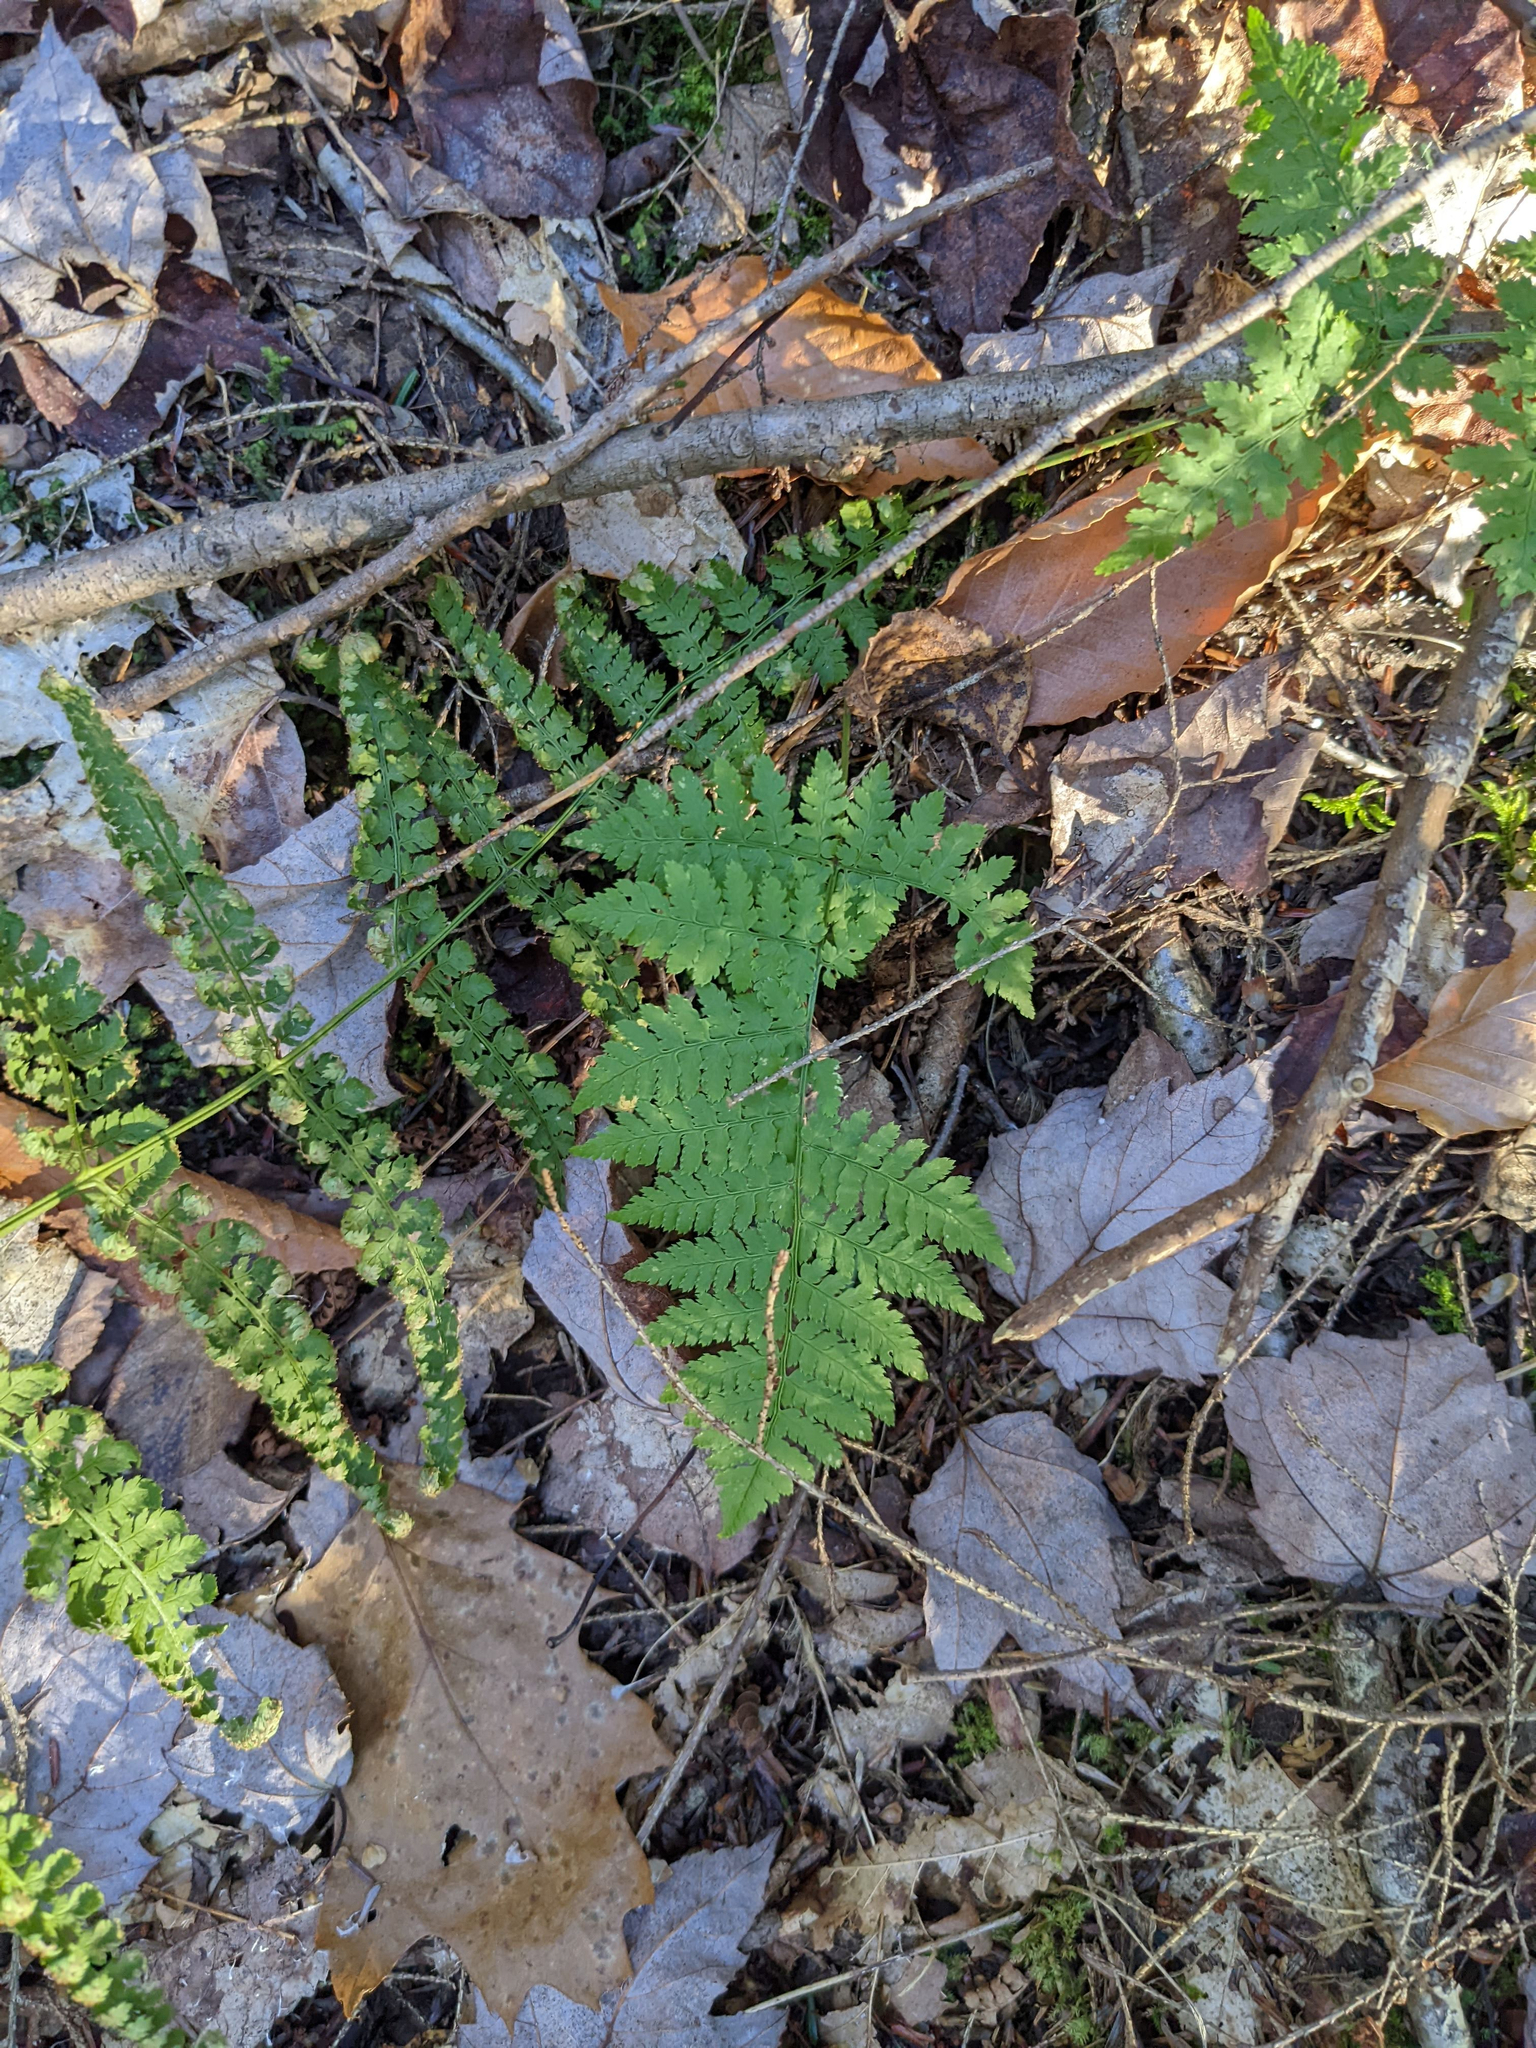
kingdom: Plantae
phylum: Tracheophyta
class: Polypodiopsida
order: Polypodiales
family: Dryopteridaceae
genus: Dryopteris
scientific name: Dryopteris intermedia
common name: Evergreen wood fern
